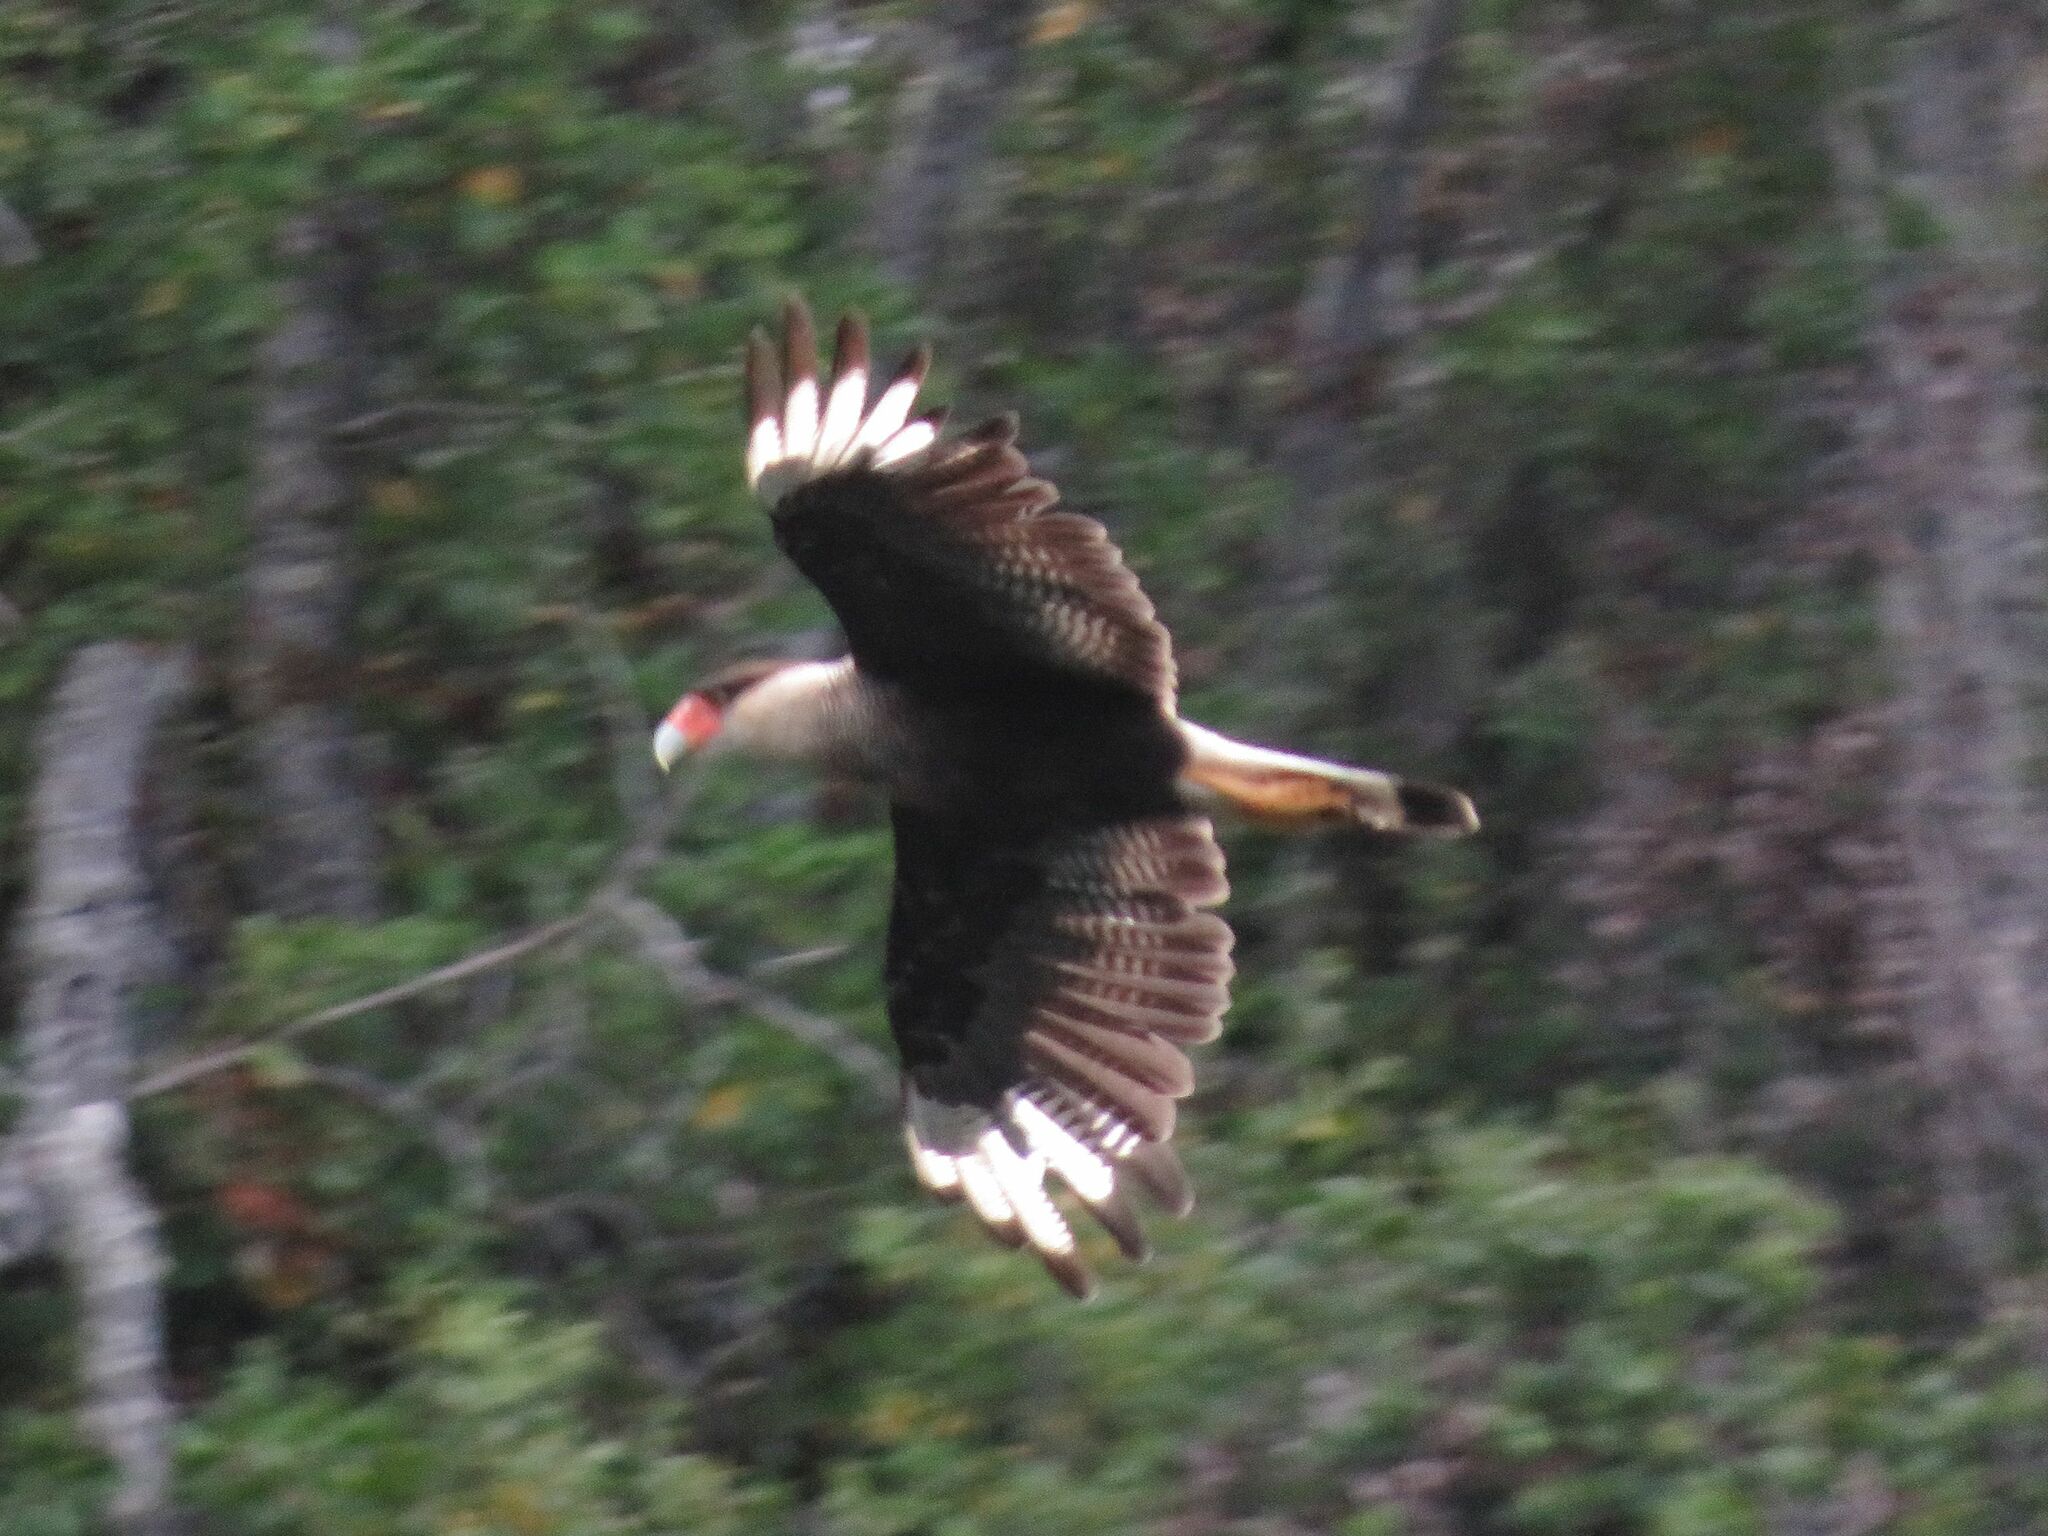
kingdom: Animalia
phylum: Chordata
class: Aves
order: Falconiformes
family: Falconidae
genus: Caracara
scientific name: Caracara plancus
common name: Southern caracara
